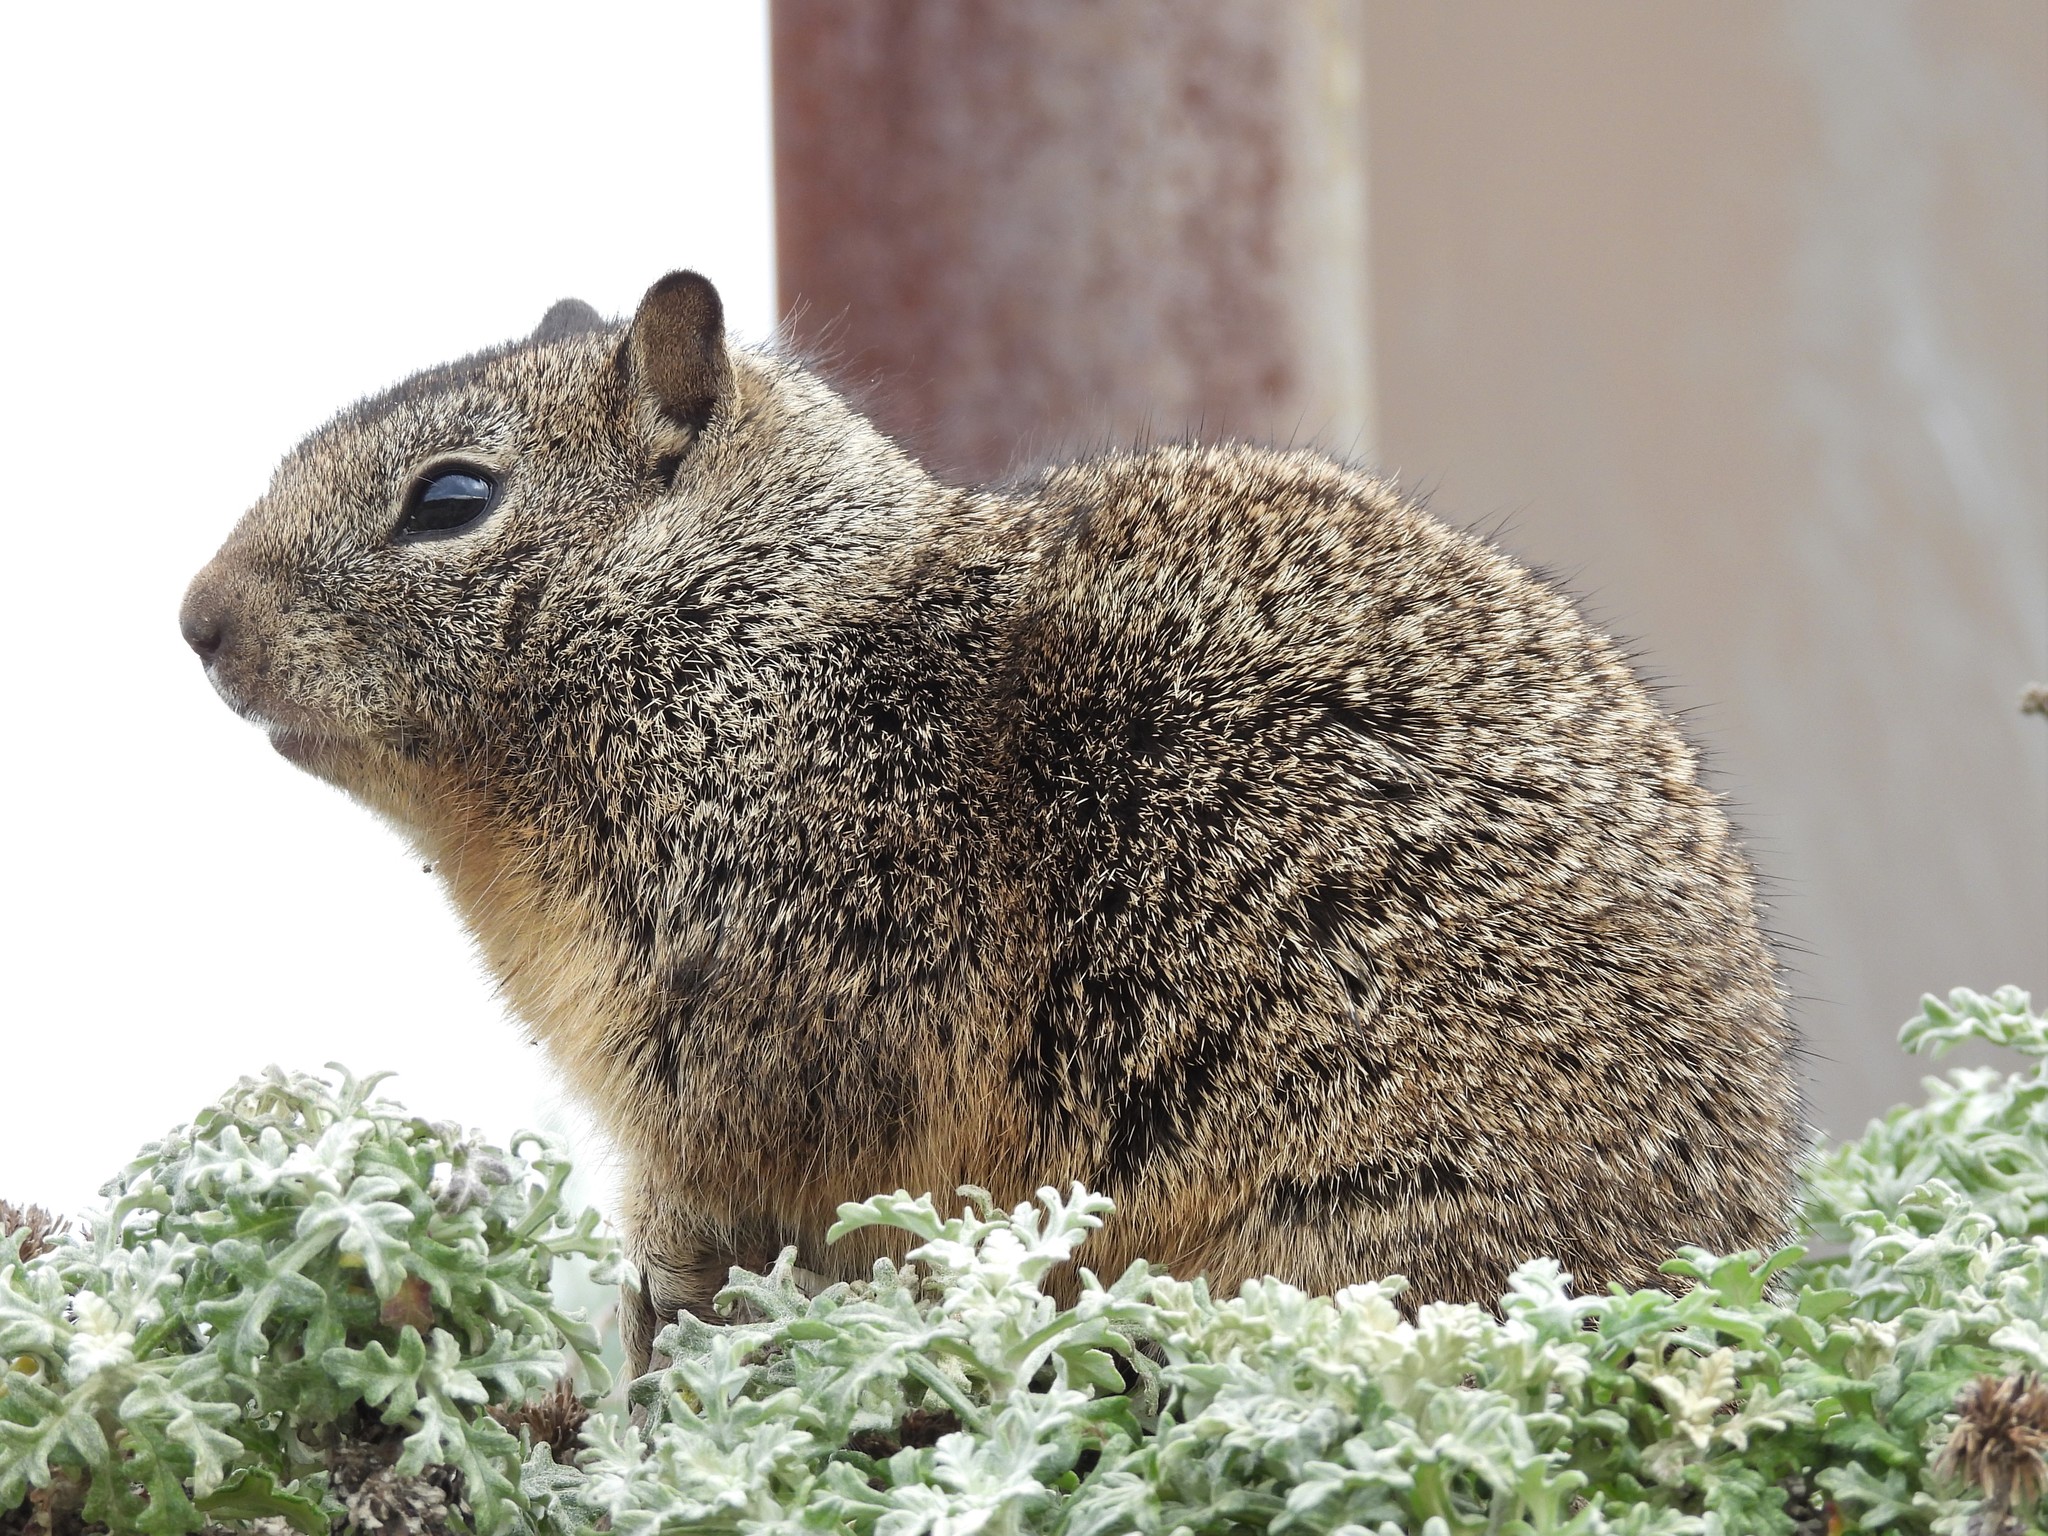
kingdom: Animalia
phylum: Chordata
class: Mammalia
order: Rodentia
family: Sciuridae
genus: Otospermophilus
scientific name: Otospermophilus beecheyi
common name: California ground squirrel
